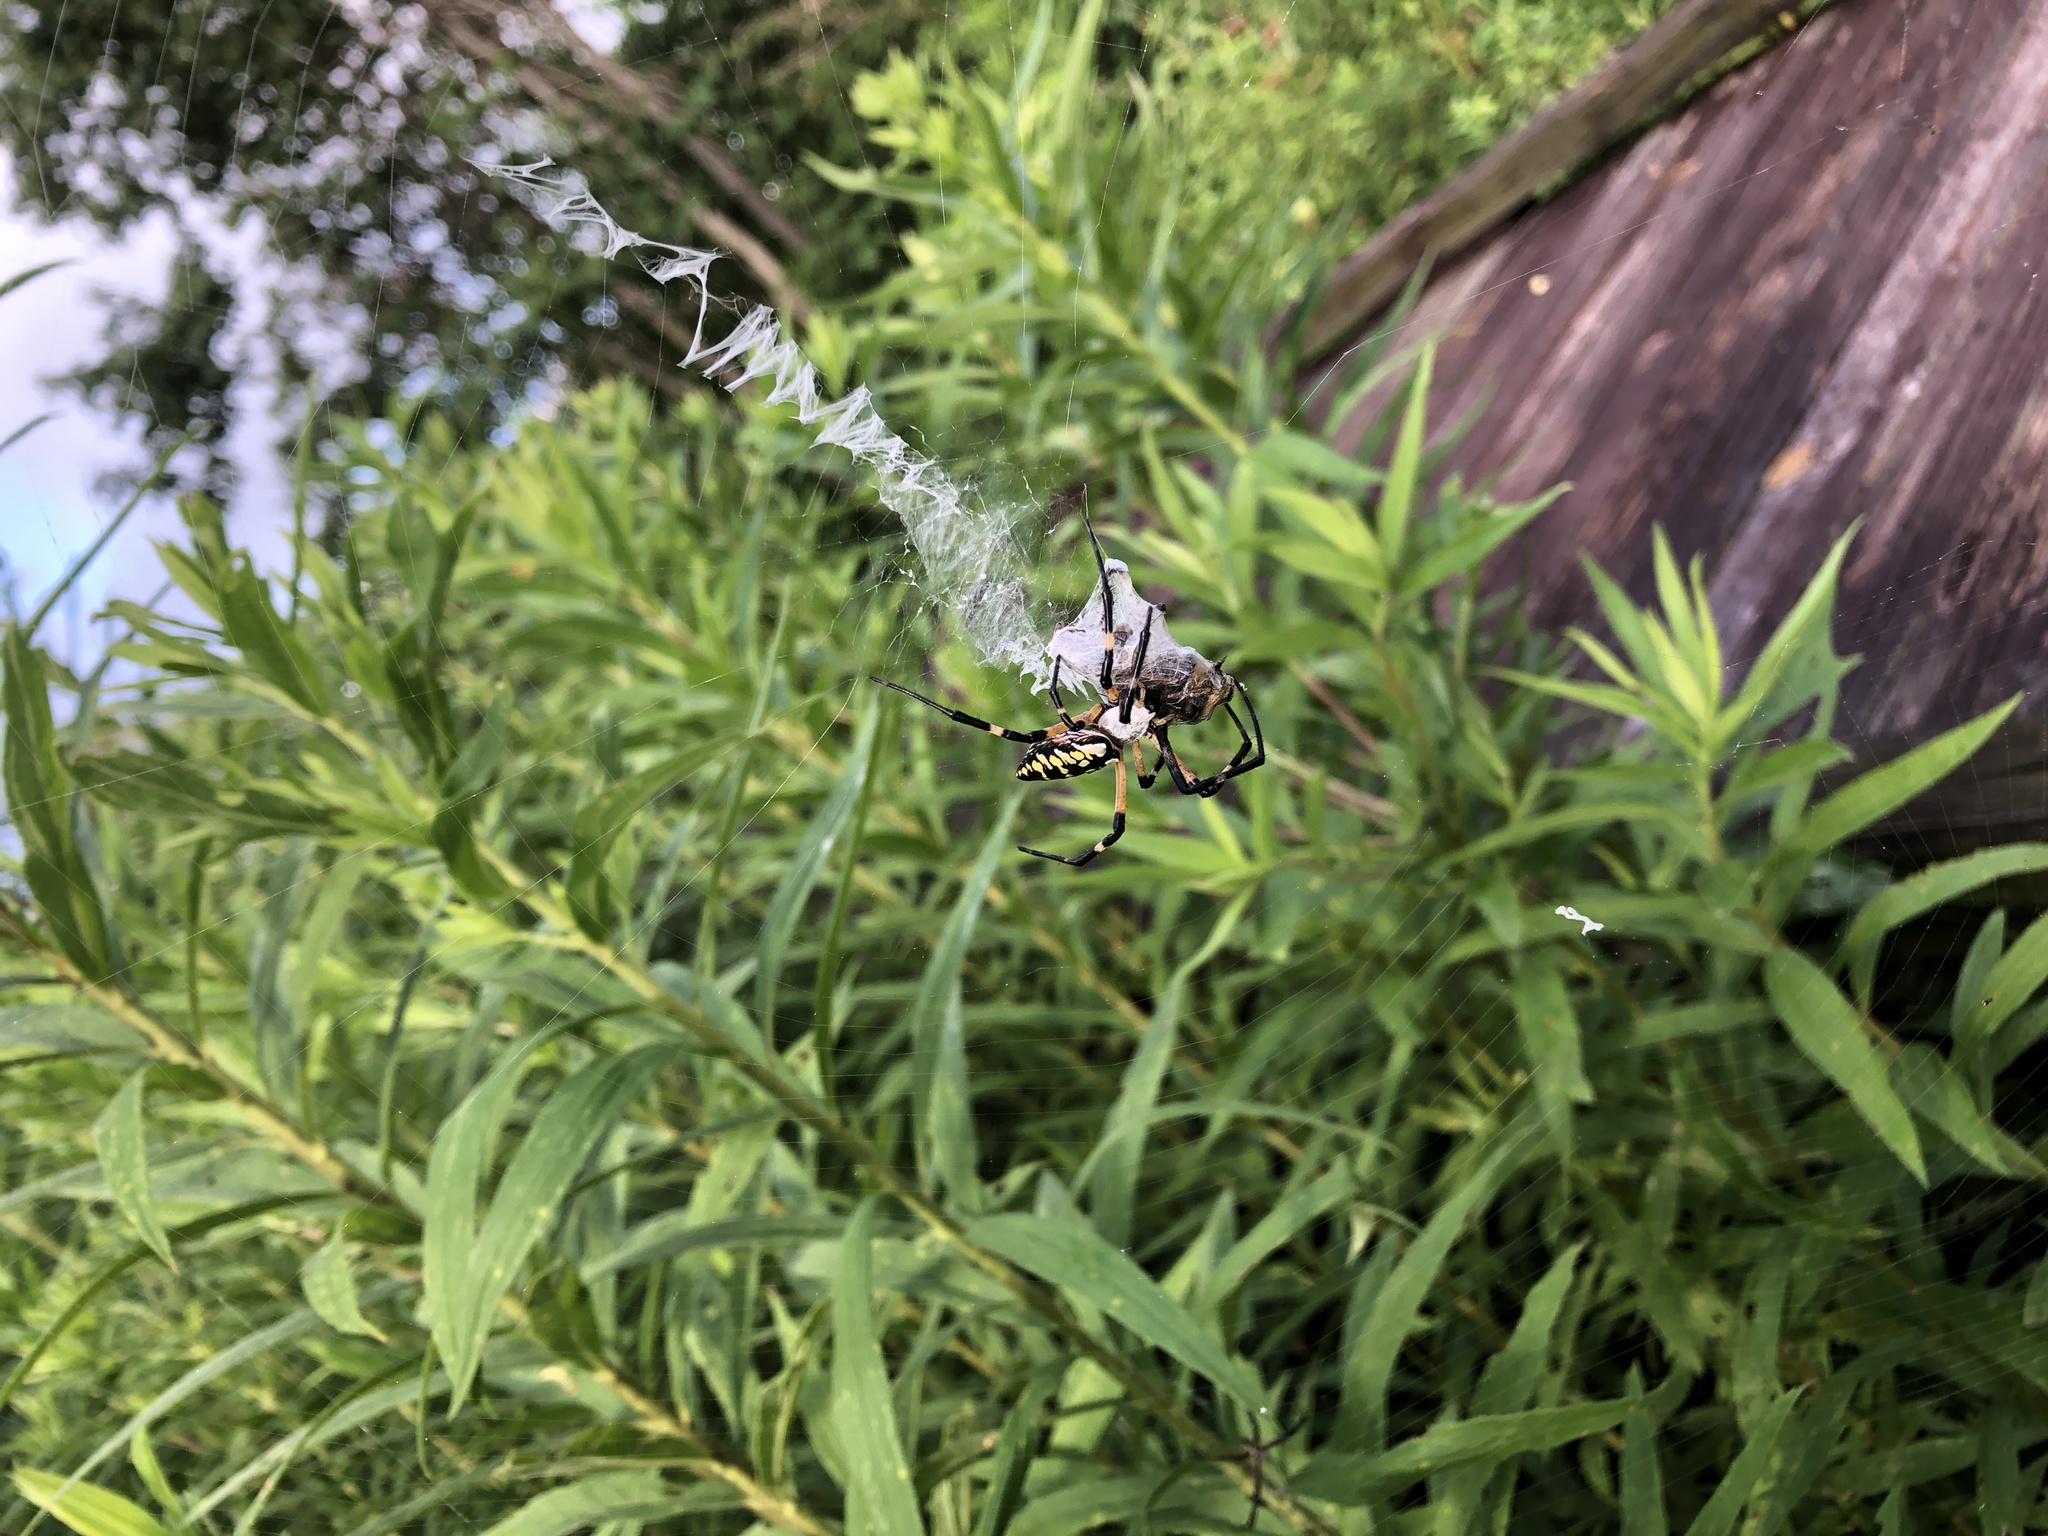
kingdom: Animalia
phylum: Arthropoda
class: Arachnida
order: Araneae
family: Araneidae
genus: Argiope
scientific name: Argiope aurantia
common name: Orb weavers
